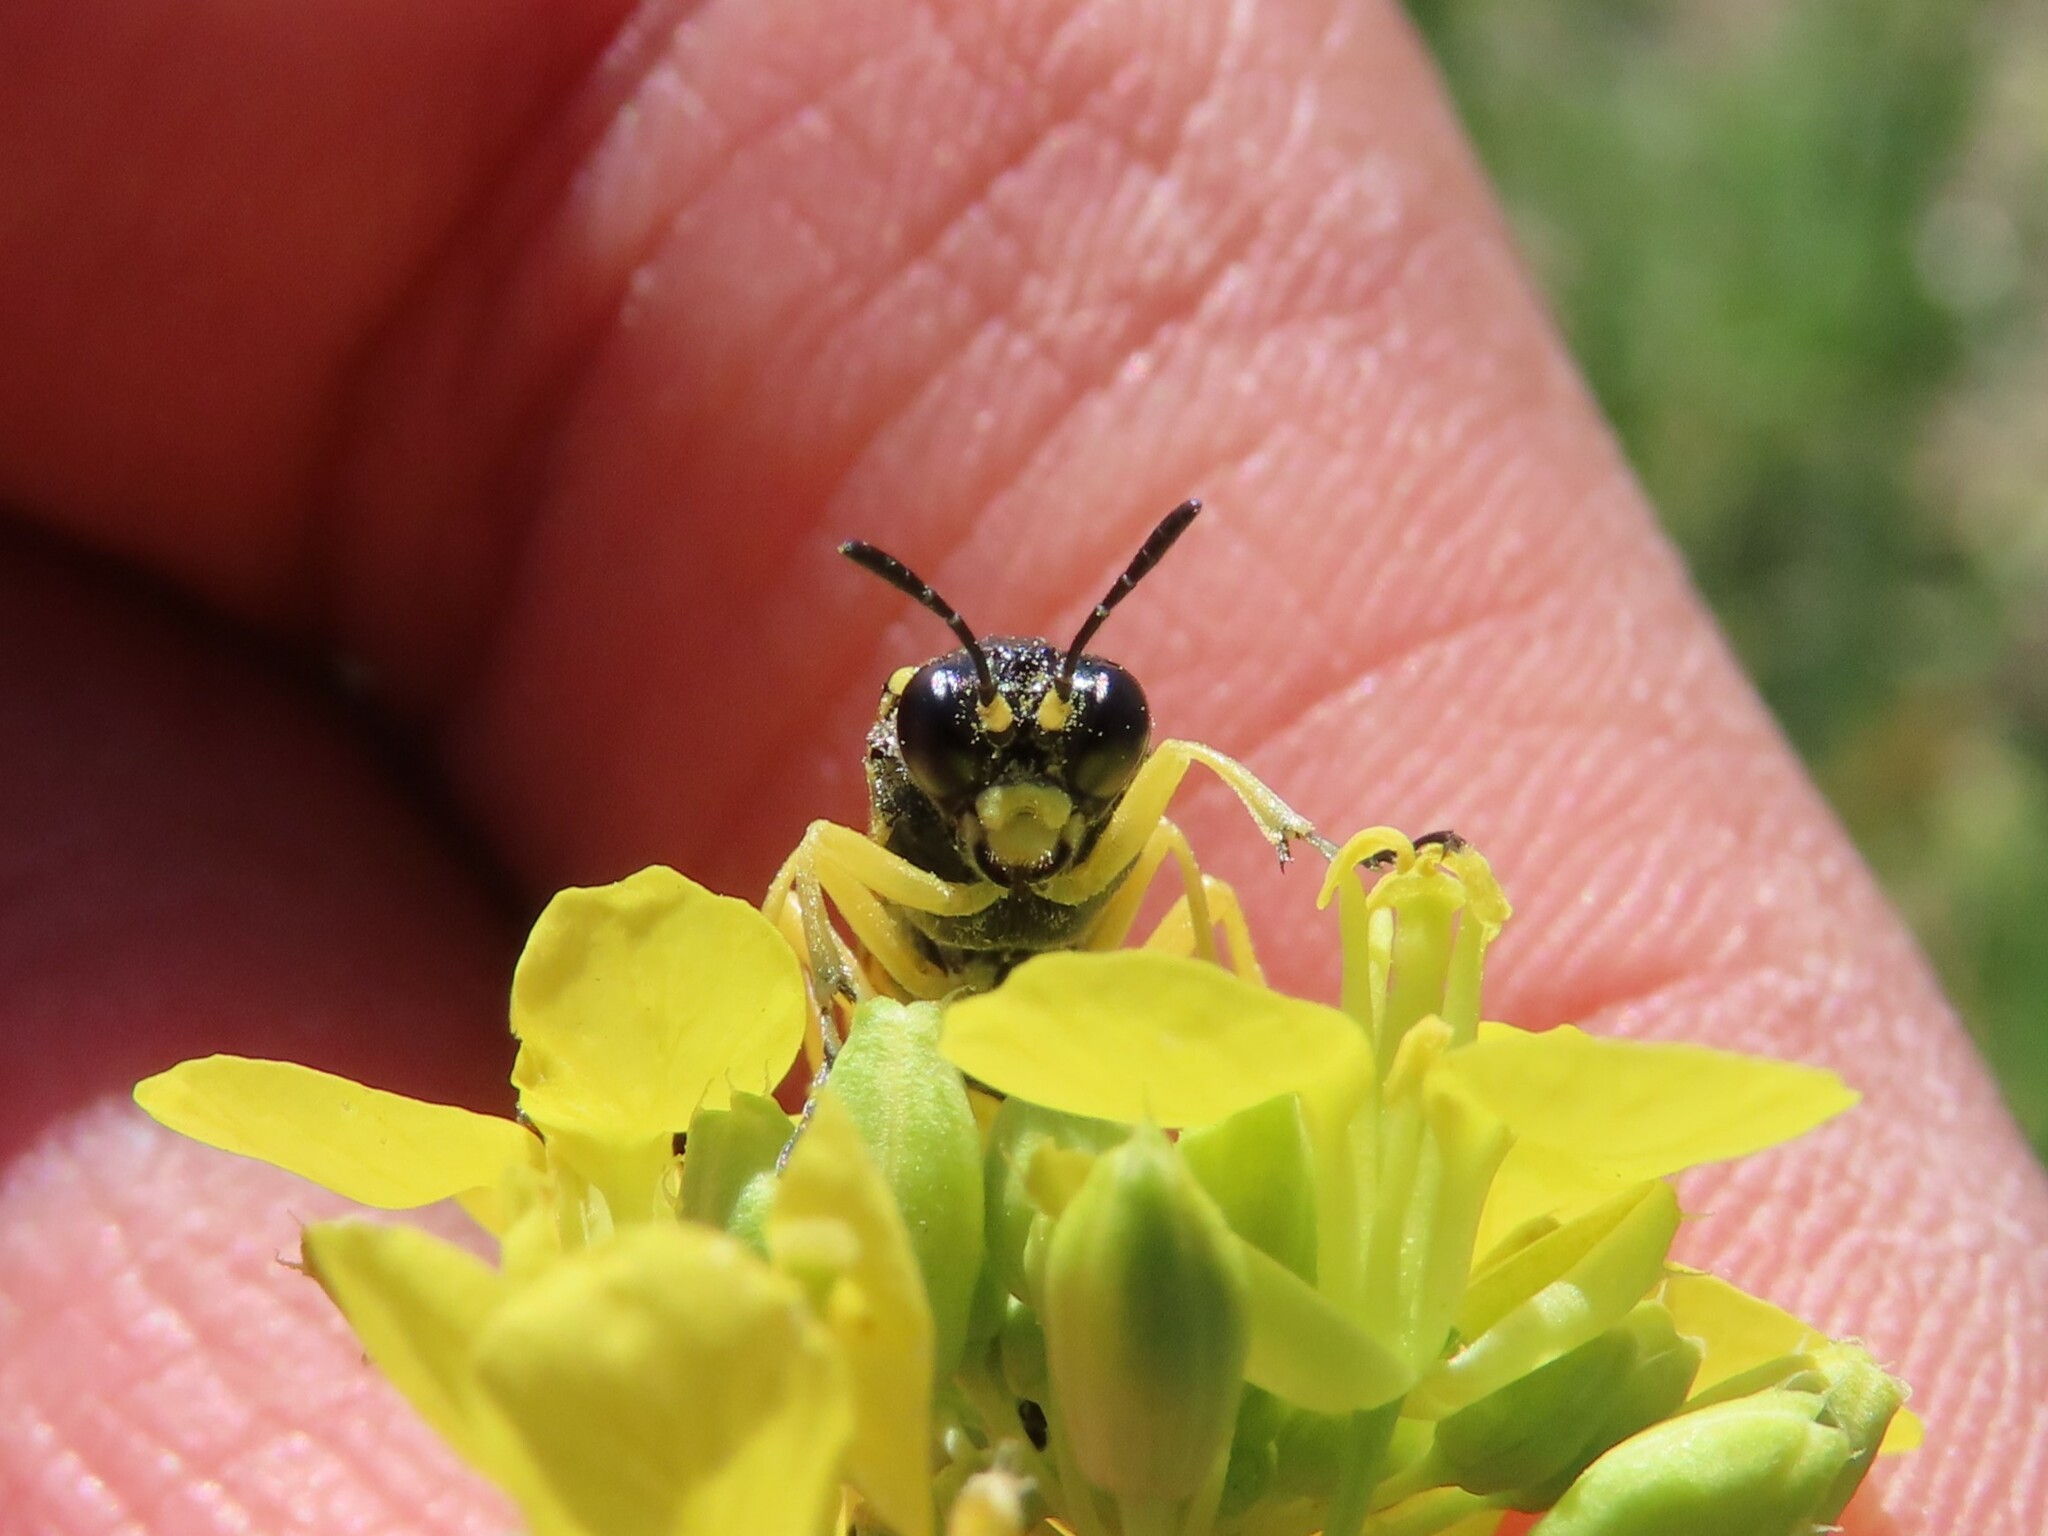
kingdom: Animalia
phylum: Arthropoda
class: Insecta
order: Hymenoptera
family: Tenthredinidae
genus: Tenthredo
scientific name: Tenthredo baetica
